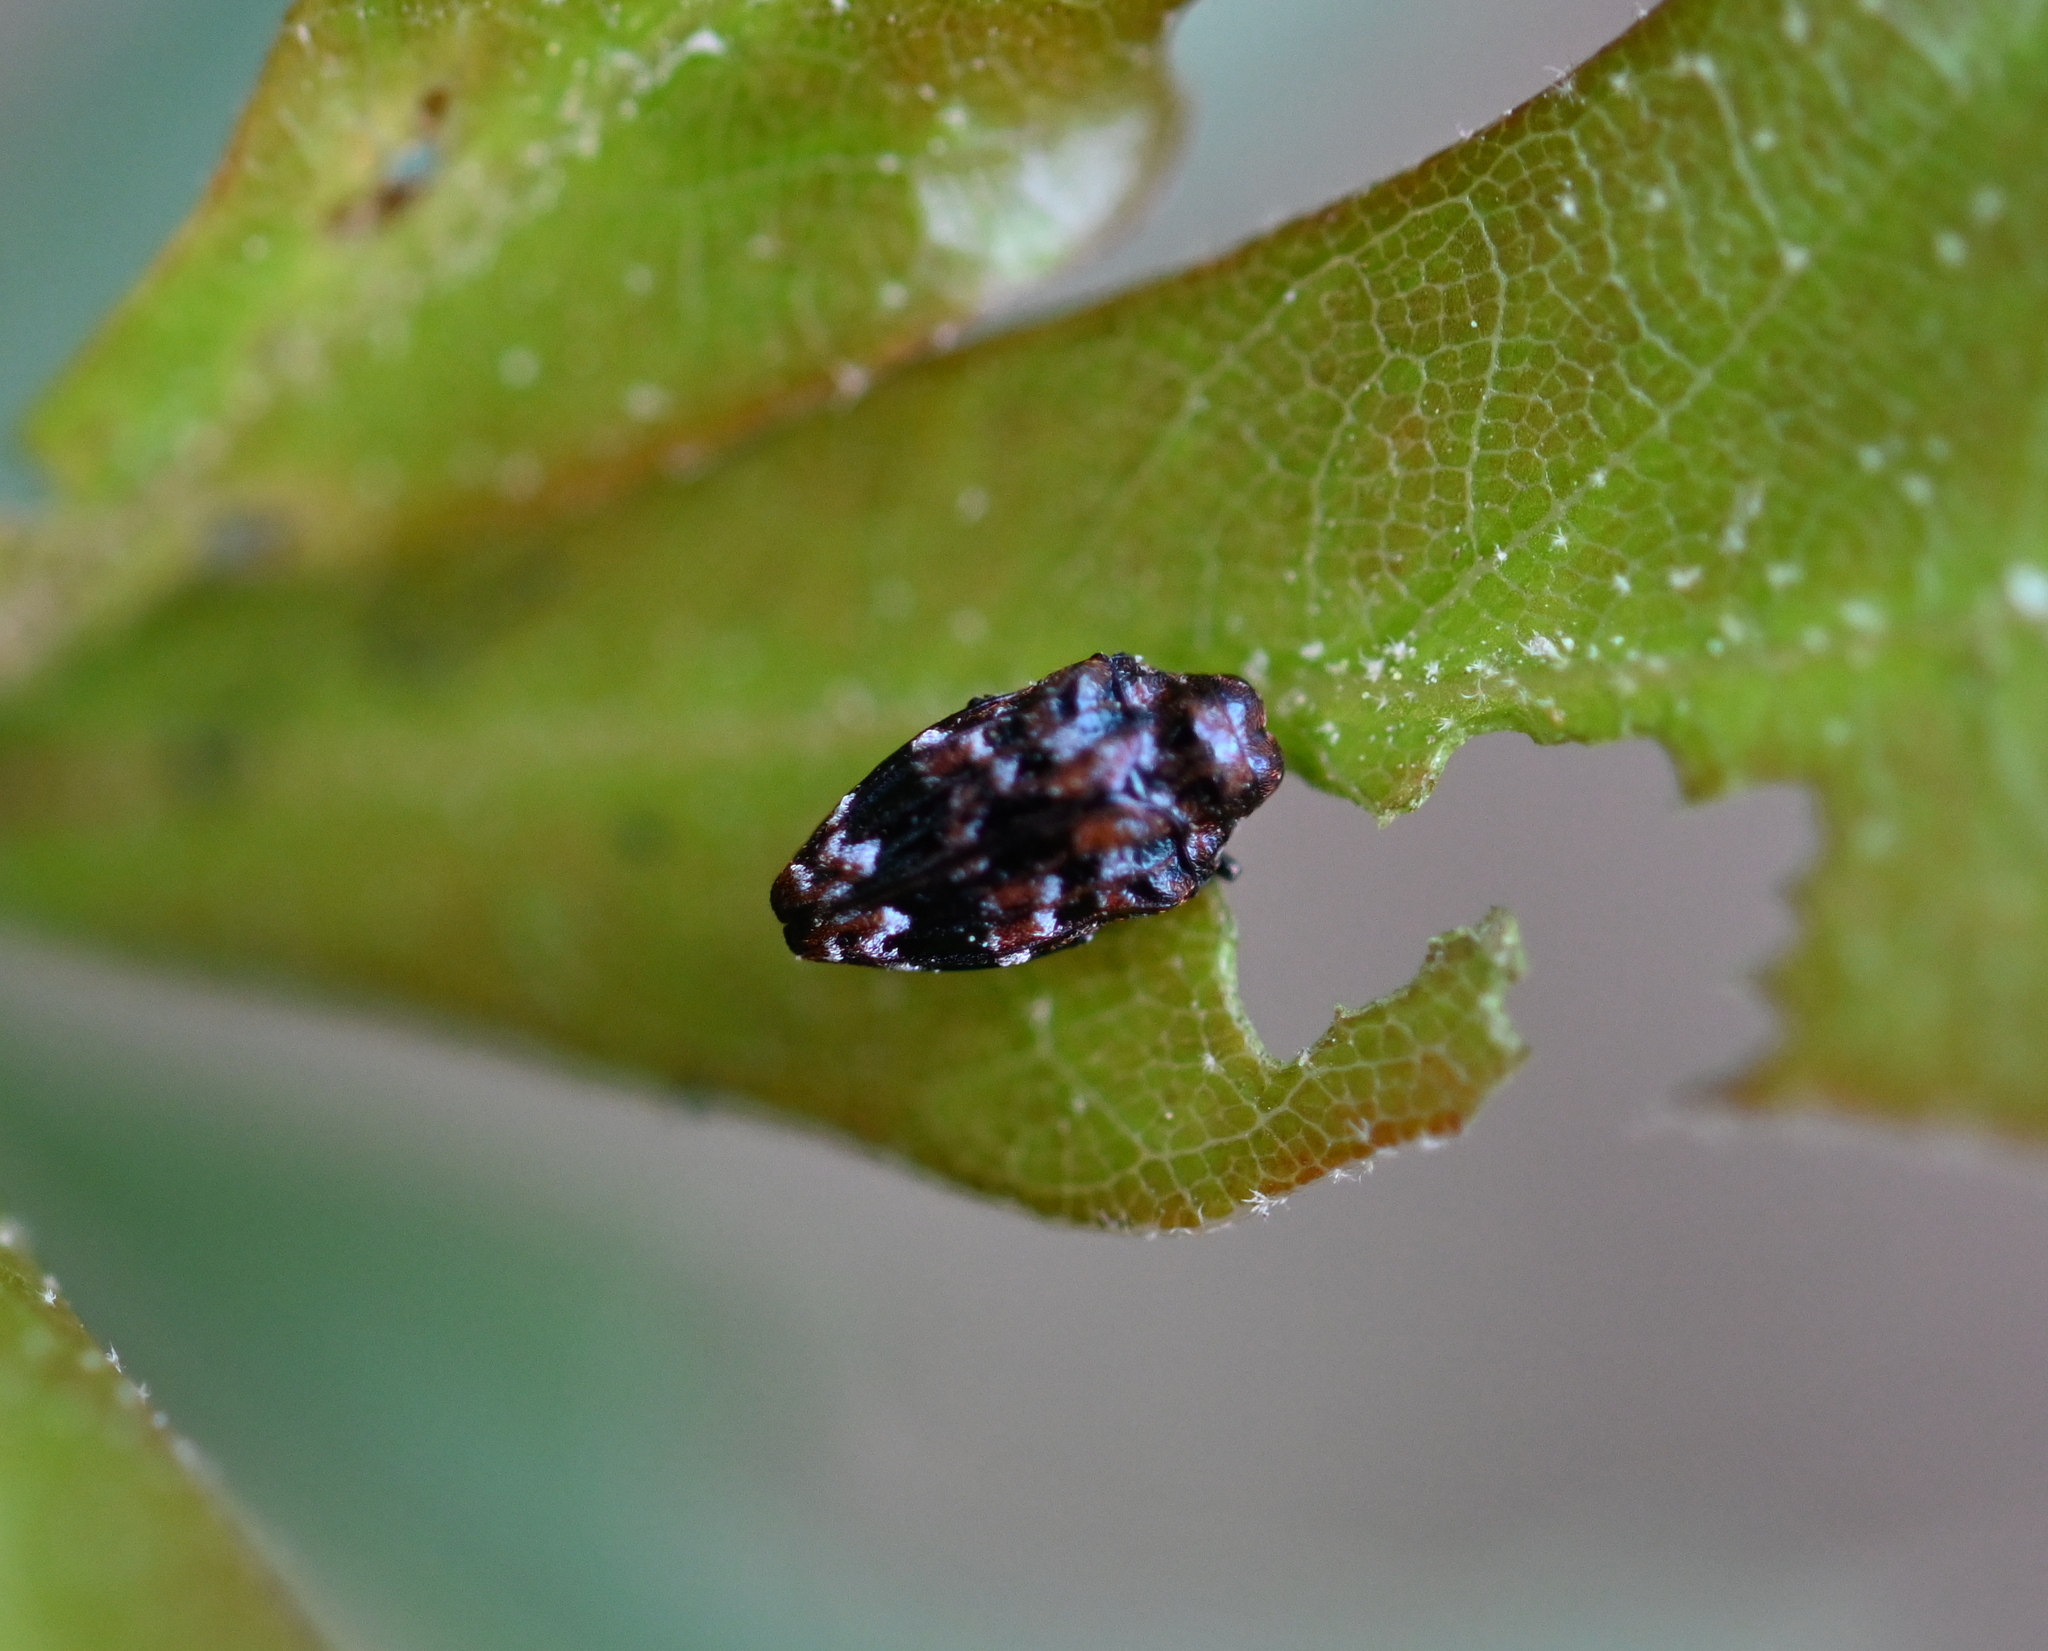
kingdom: Animalia
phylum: Arthropoda
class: Insecta
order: Coleoptera
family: Buprestidae
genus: Brachys
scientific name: Brachys ovatus
